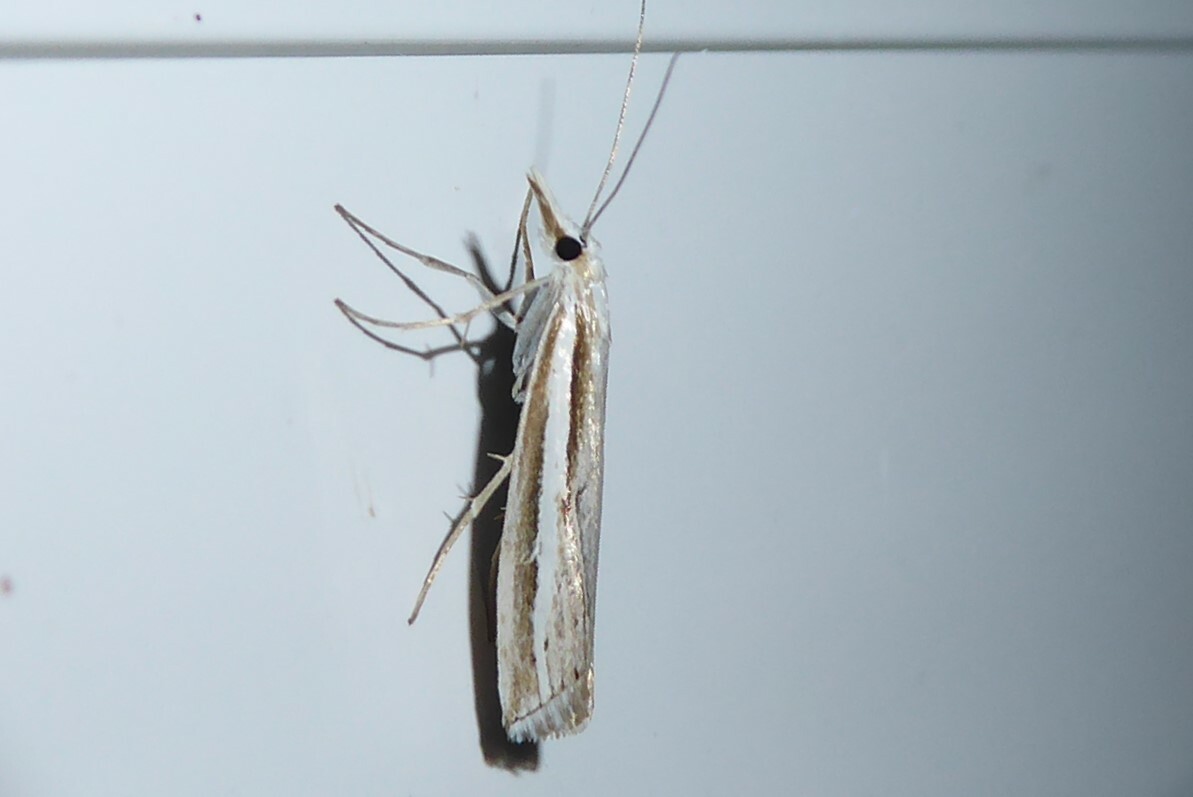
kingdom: Animalia
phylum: Arthropoda
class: Insecta
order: Lepidoptera
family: Crambidae
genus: Orocrambus
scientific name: Orocrambus vittellus
